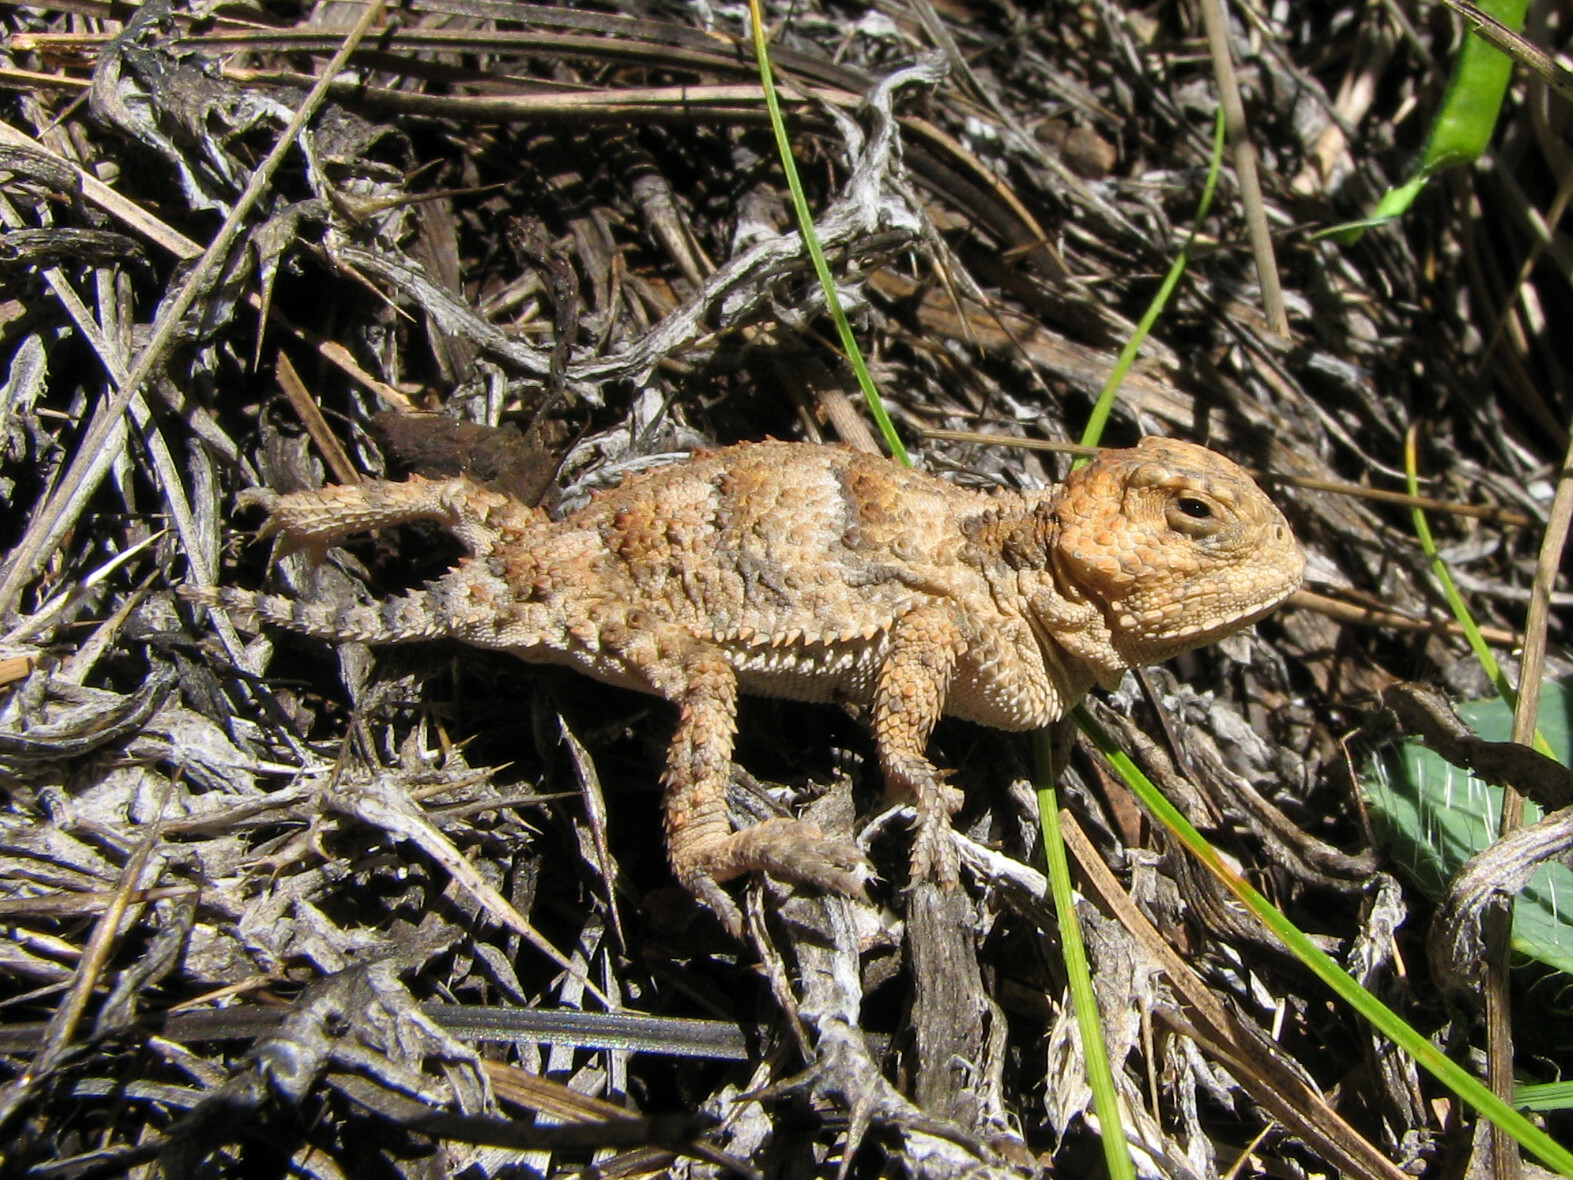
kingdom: Animalia
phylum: Chordata
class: Squamata
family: Phrynosomatidae
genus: Phrynosoma
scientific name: Phrynosoma hernandesi
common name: Greater short-horned lizard
